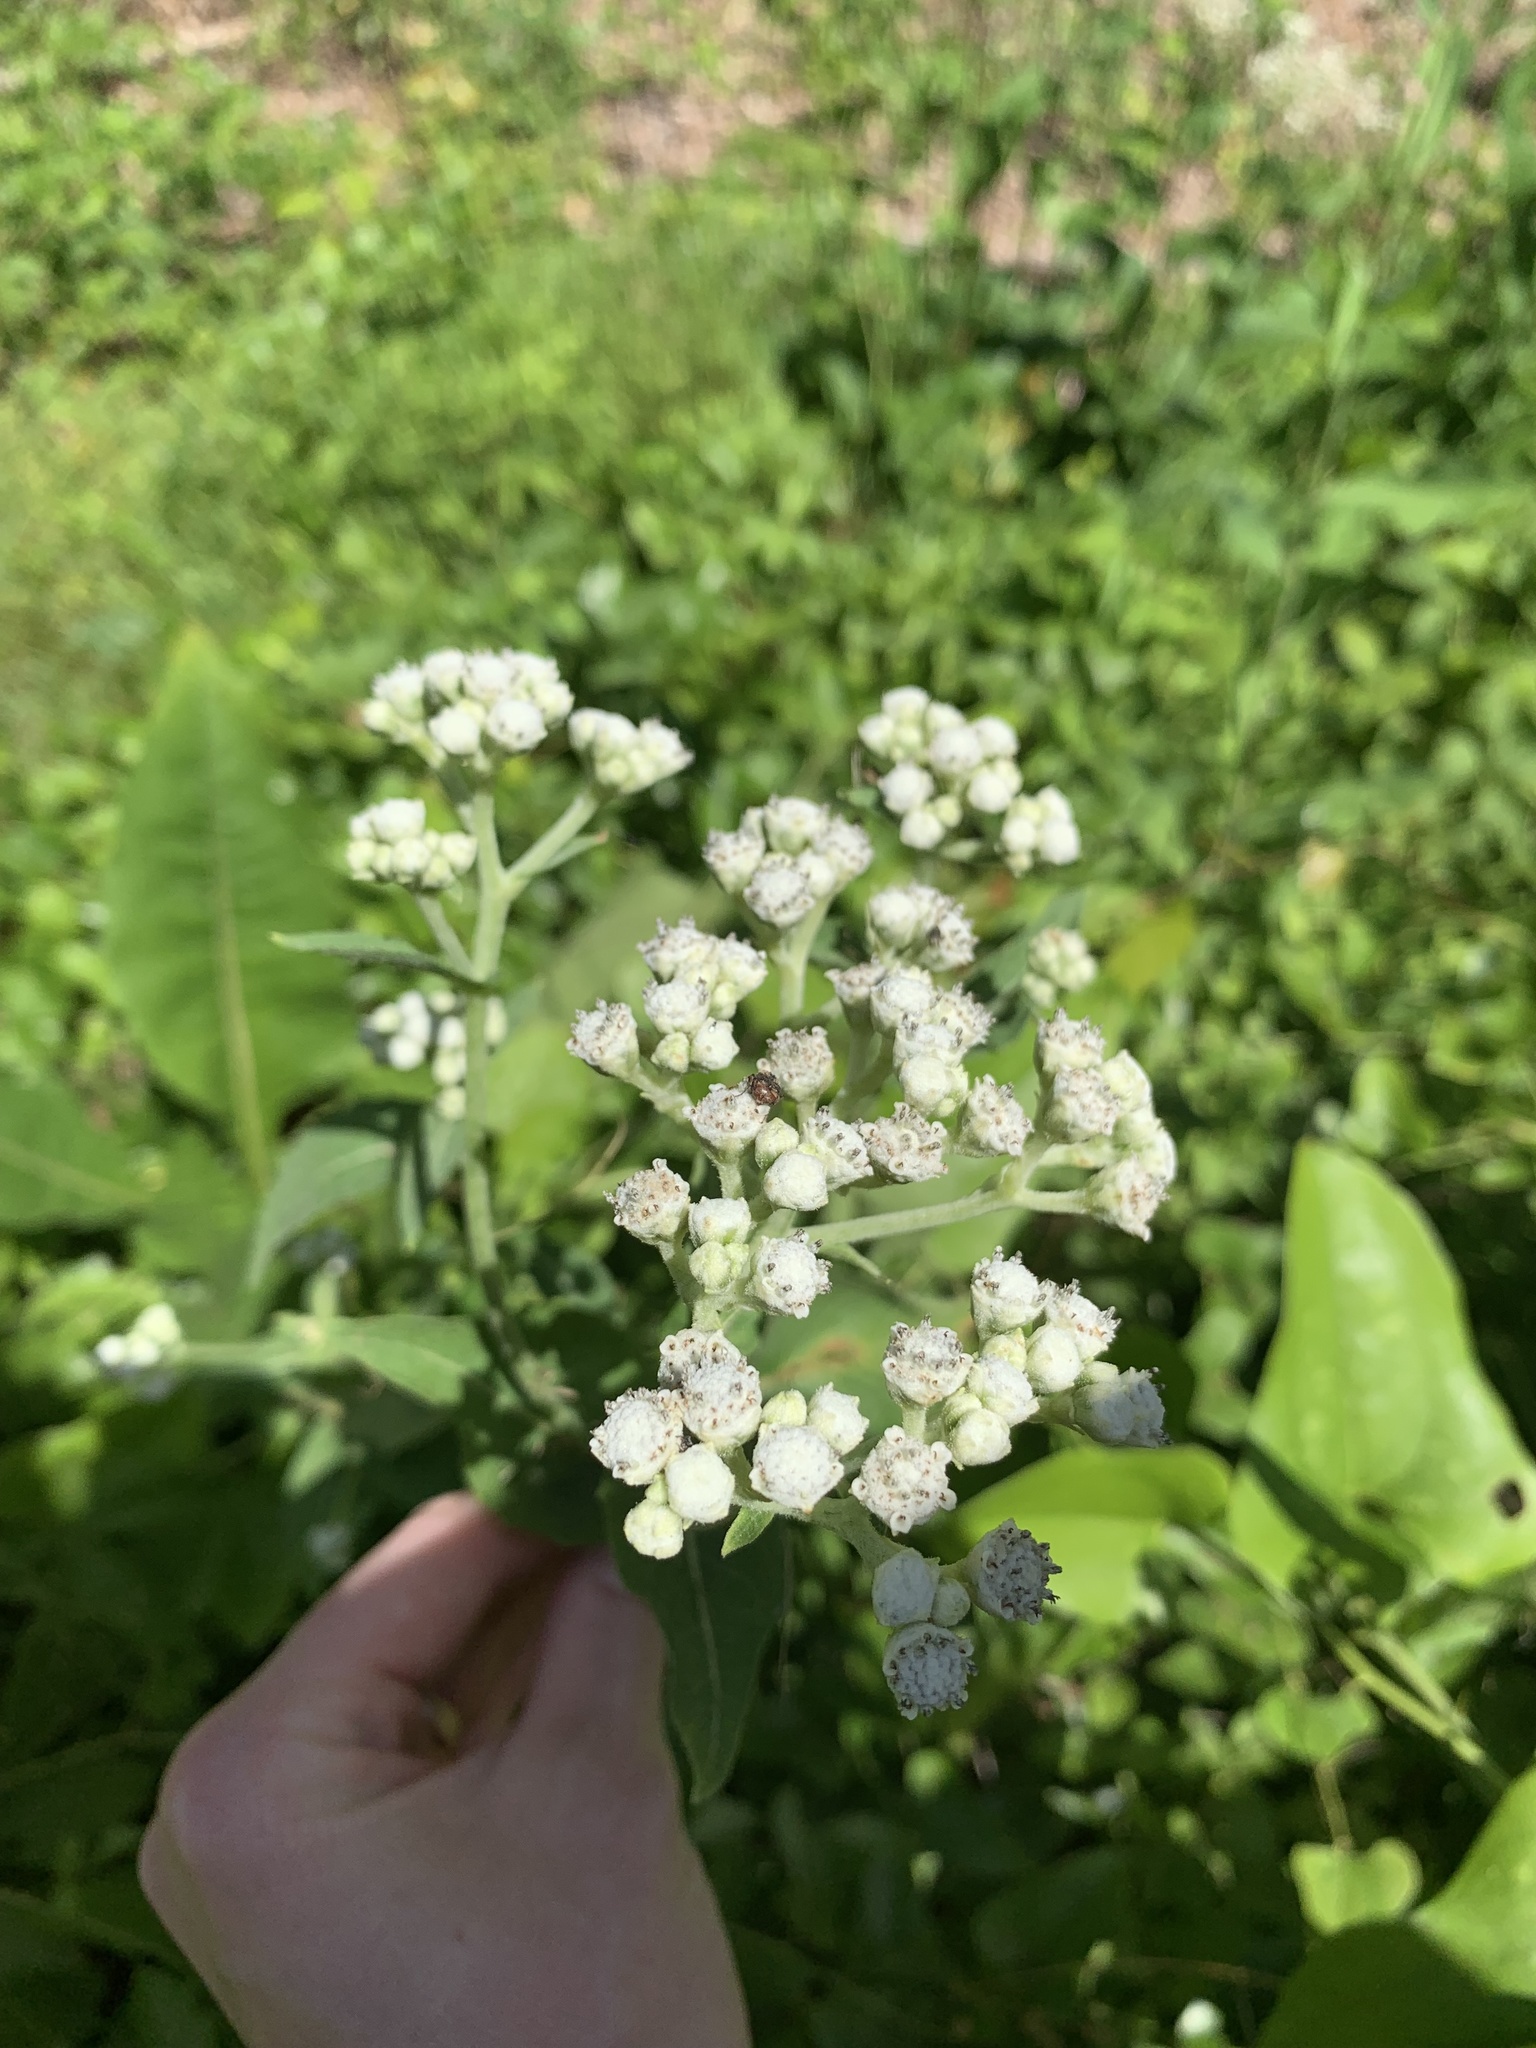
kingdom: Plantae
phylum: Tracheophyta
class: Magnoliopsida
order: Asterales
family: Asteraceae
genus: Parthenium
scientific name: Parthenium integrifolium
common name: American feverfew
